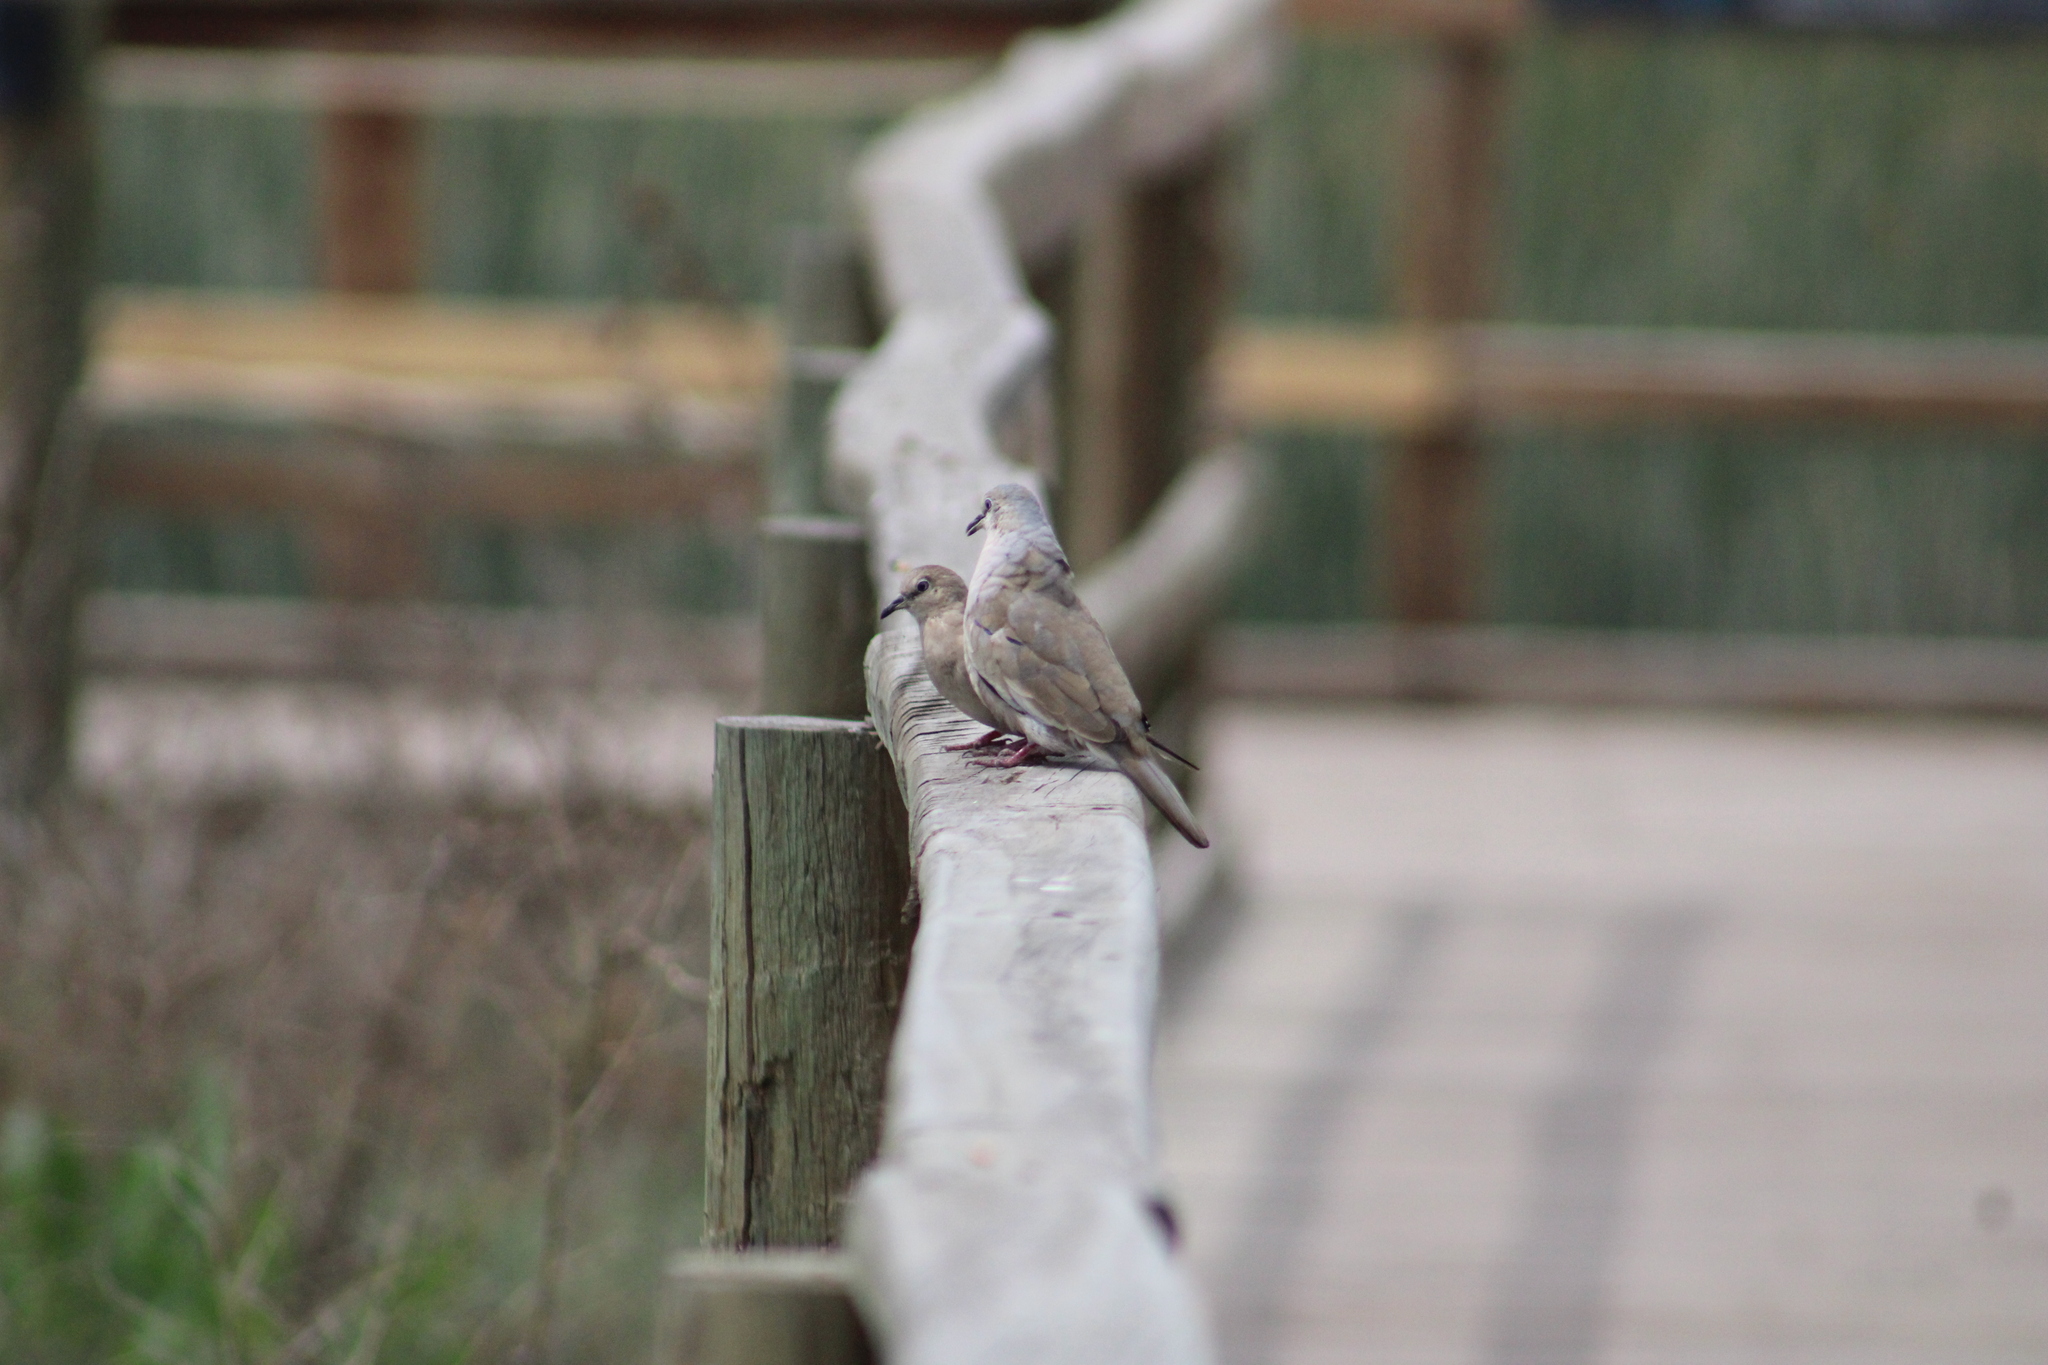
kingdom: Animalia
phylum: Chordata
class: Aves
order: Columbiformes
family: Columbidae
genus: Columbina
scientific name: Columbina picui
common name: Picui ground dove
